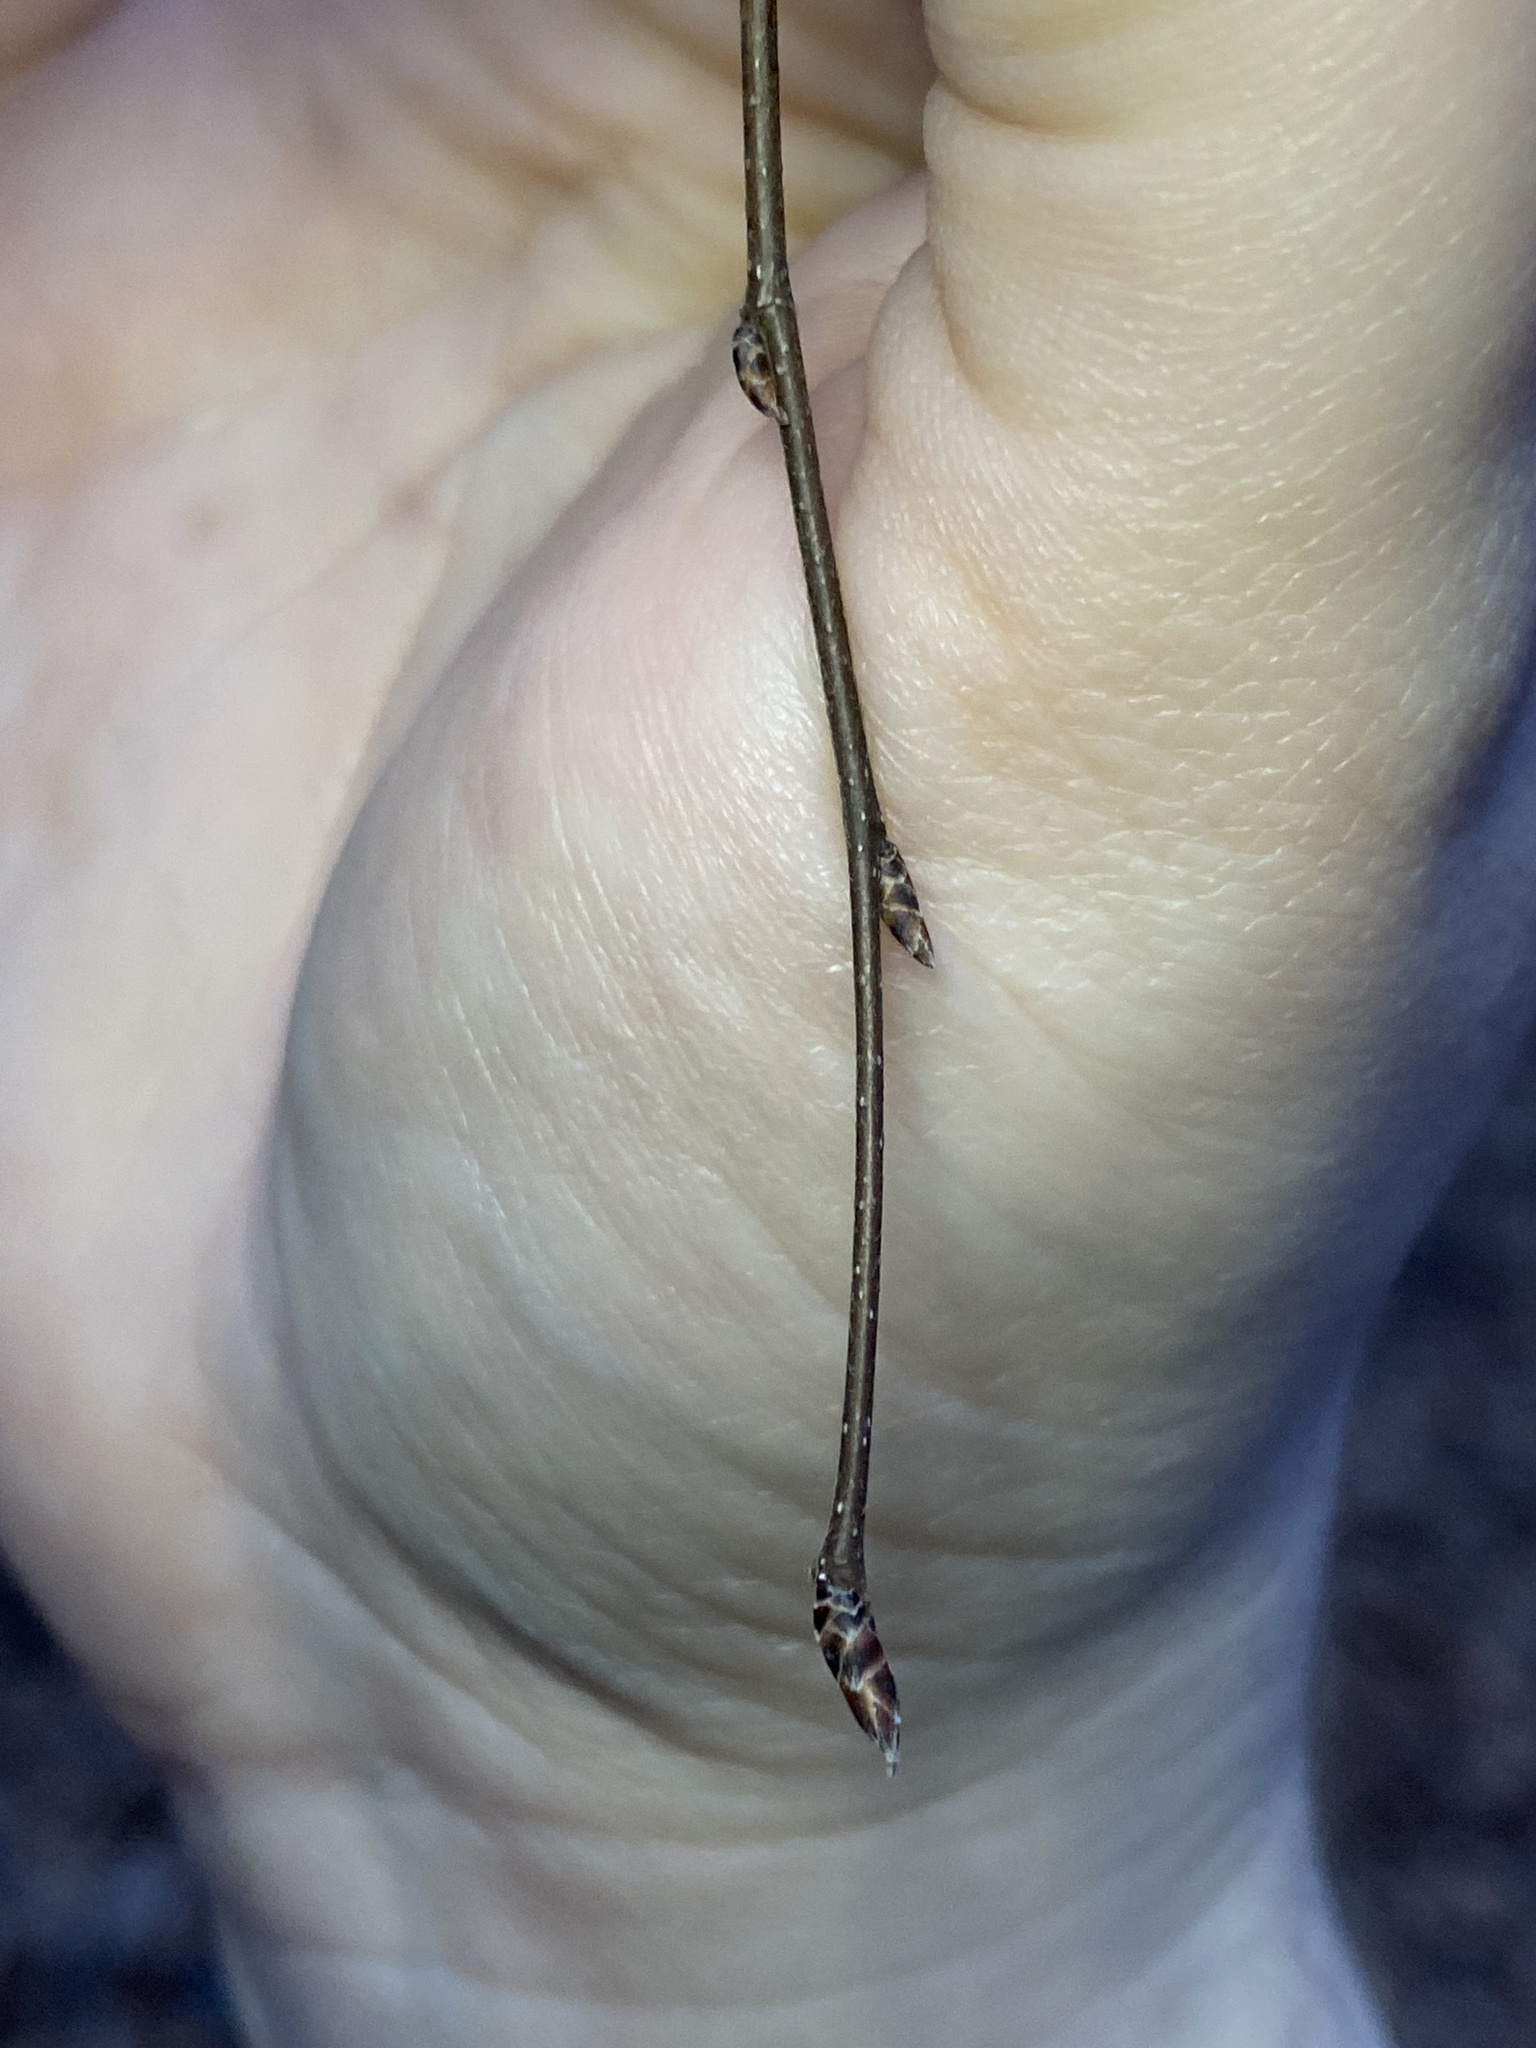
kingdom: Plantae
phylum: Tracheophyta
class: Magnoliopsida
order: Fagales
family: Betulaceae
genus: Carpinus
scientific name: Carpinus caroliniana
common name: American hornbeam
